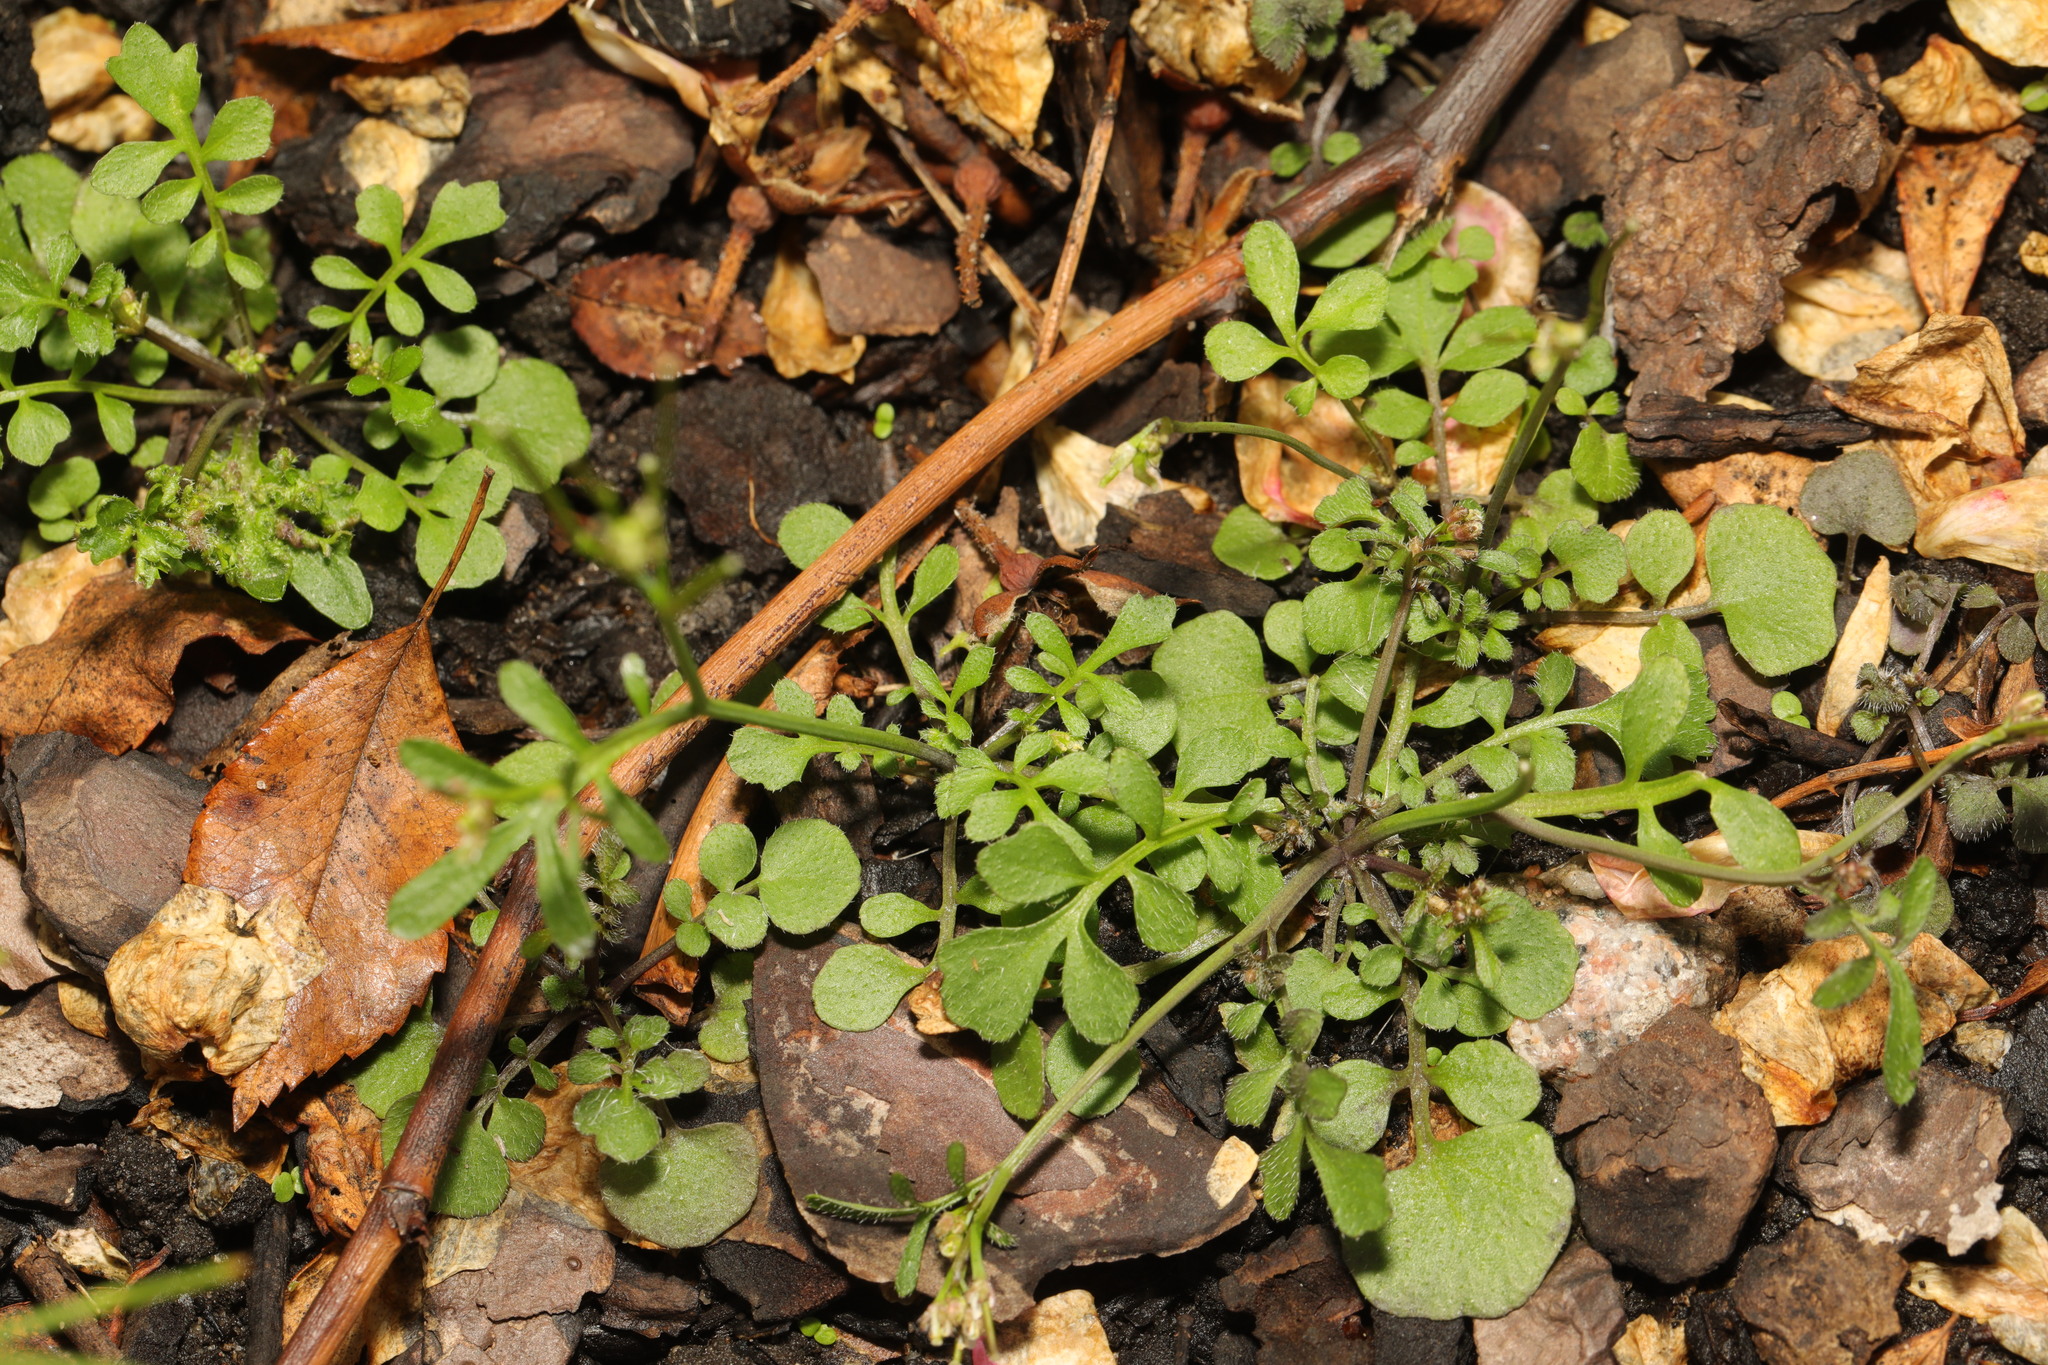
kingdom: Plantae
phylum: Tracheophyta
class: Magnoliopsida
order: Brassicales
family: Brassicaceae
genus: Cardamine
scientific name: Cardamine hirsuta
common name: Hairy bittercress
